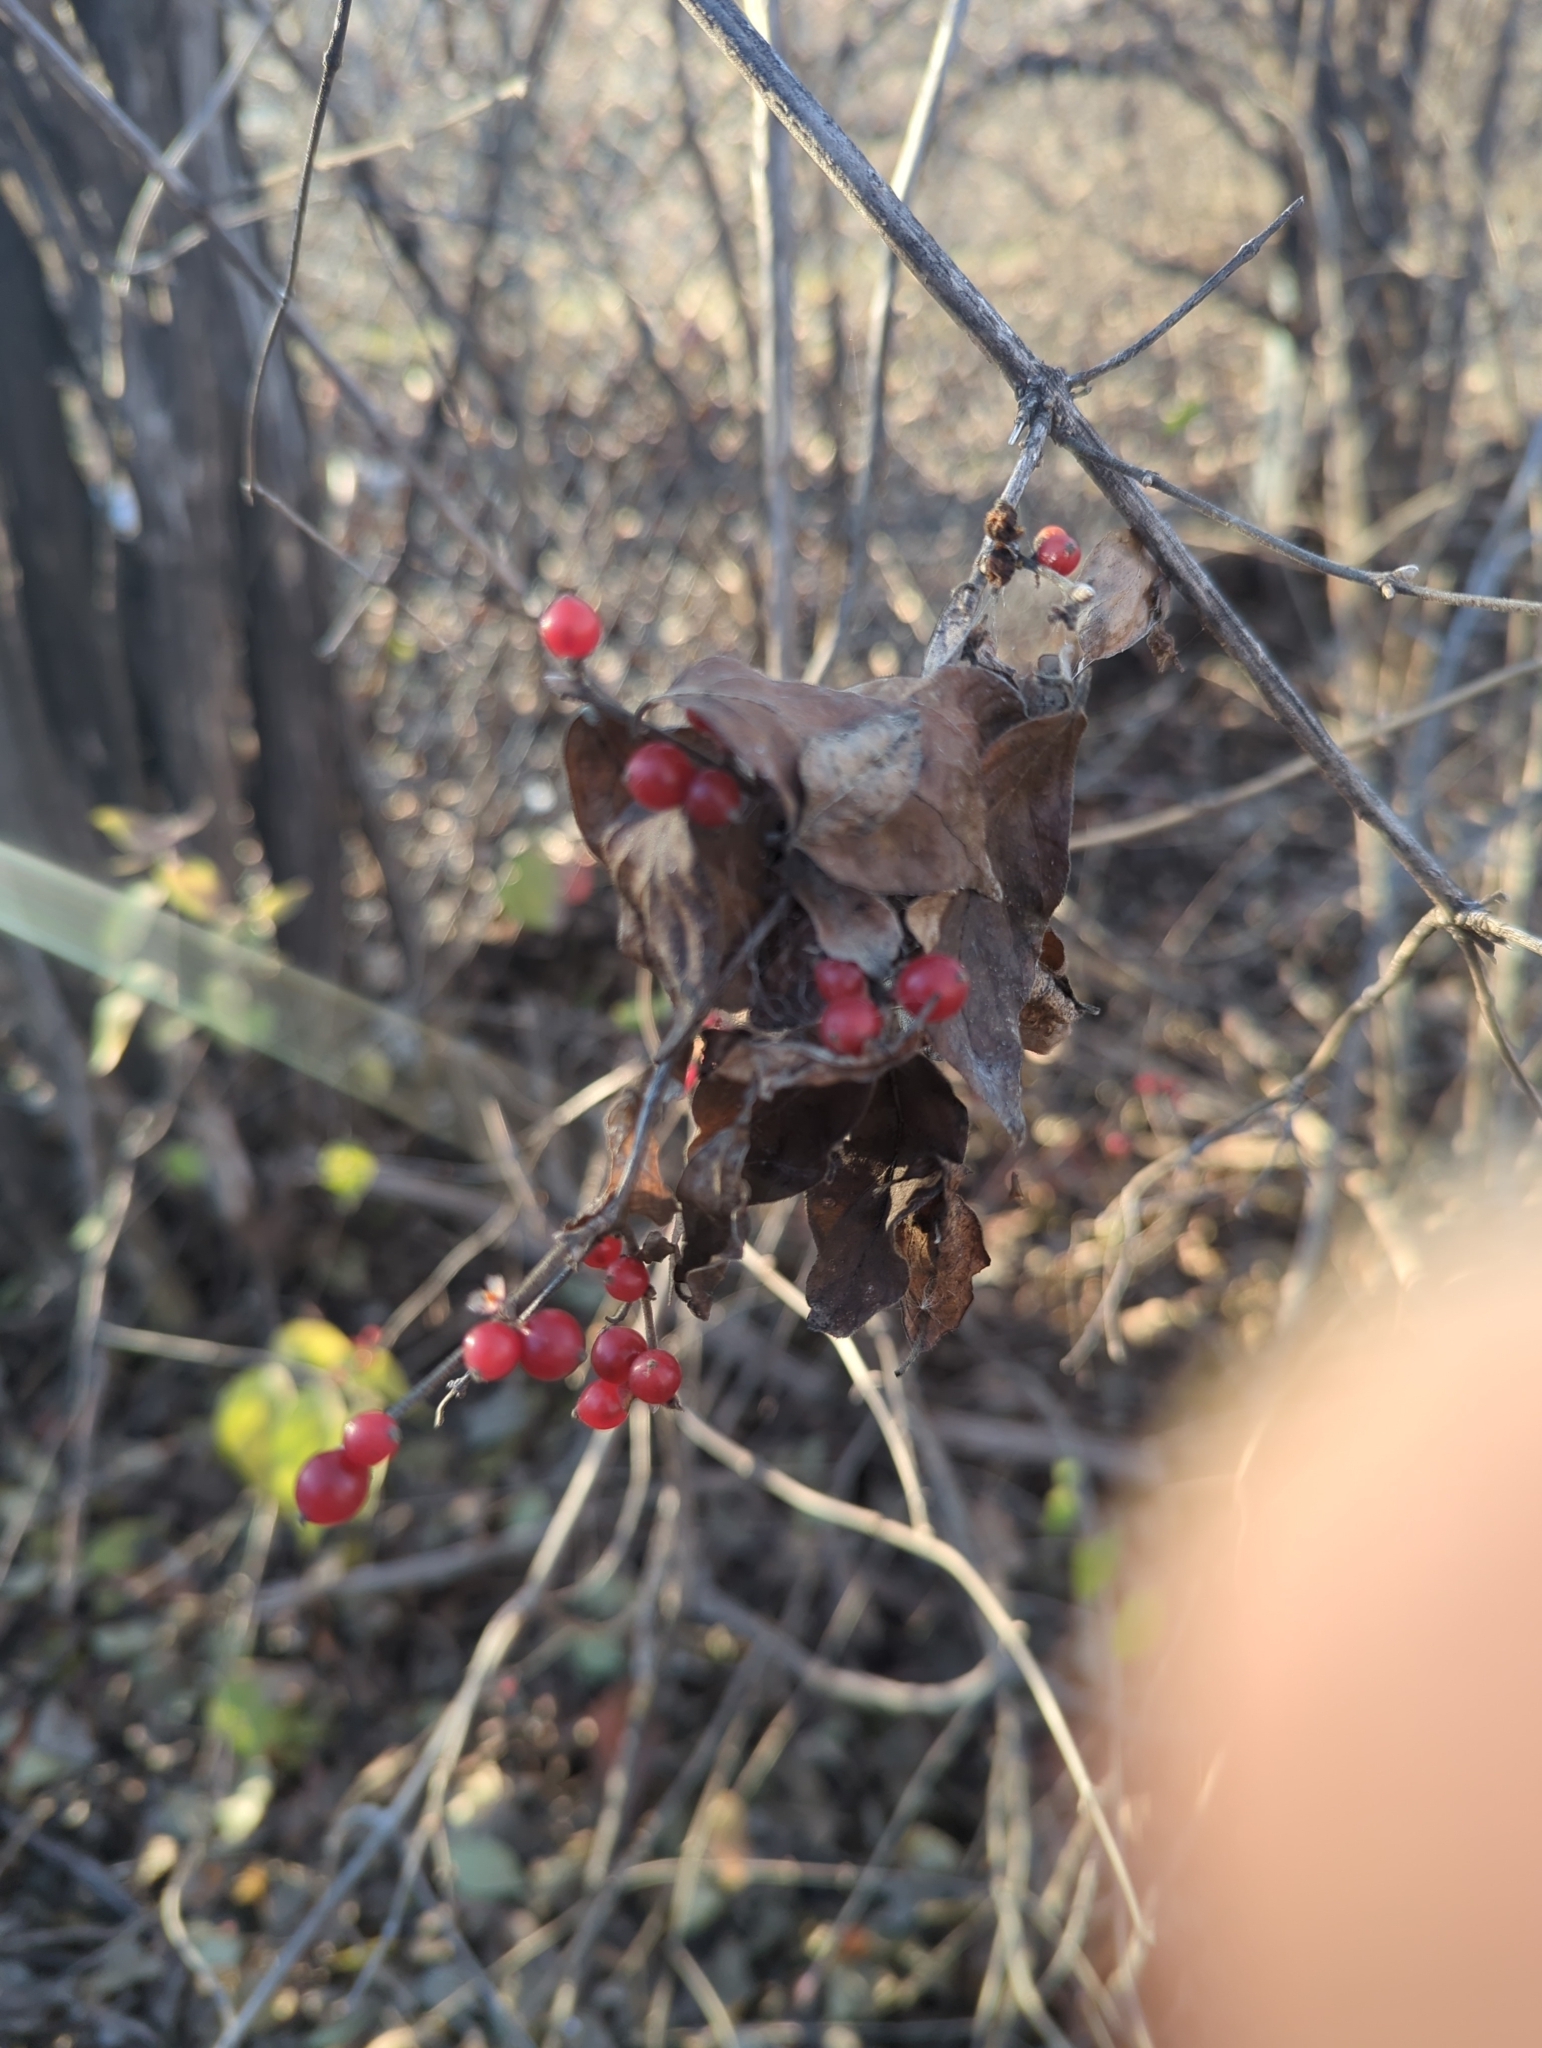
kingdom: Plantae
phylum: Tracheophyta
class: Magnoliopsida
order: Dipsacales
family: Caprifoliaceae
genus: Lonicera
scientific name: Lonicera maackii
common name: Amur honeysuckle
